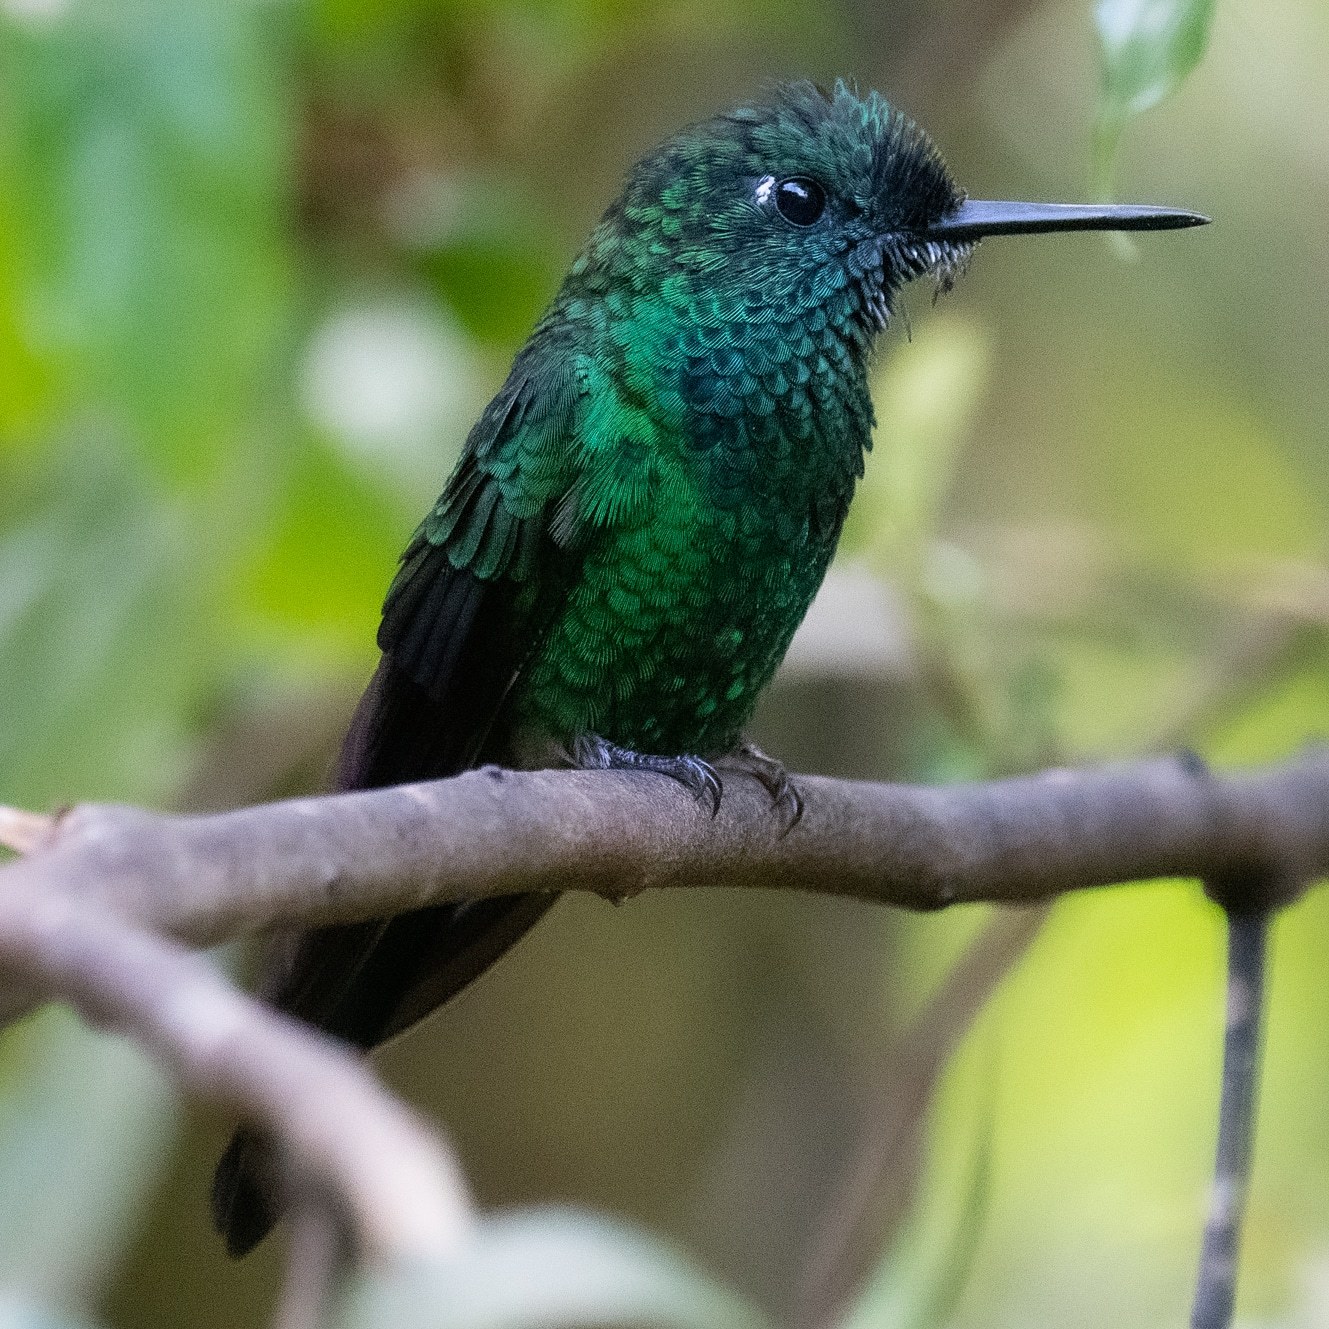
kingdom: Animalia
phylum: Chordata
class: Aves
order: Apodiformes
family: Trochilidae
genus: Heliodoxa
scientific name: Heliodoxa jacula
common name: Green-crowned brilliant
